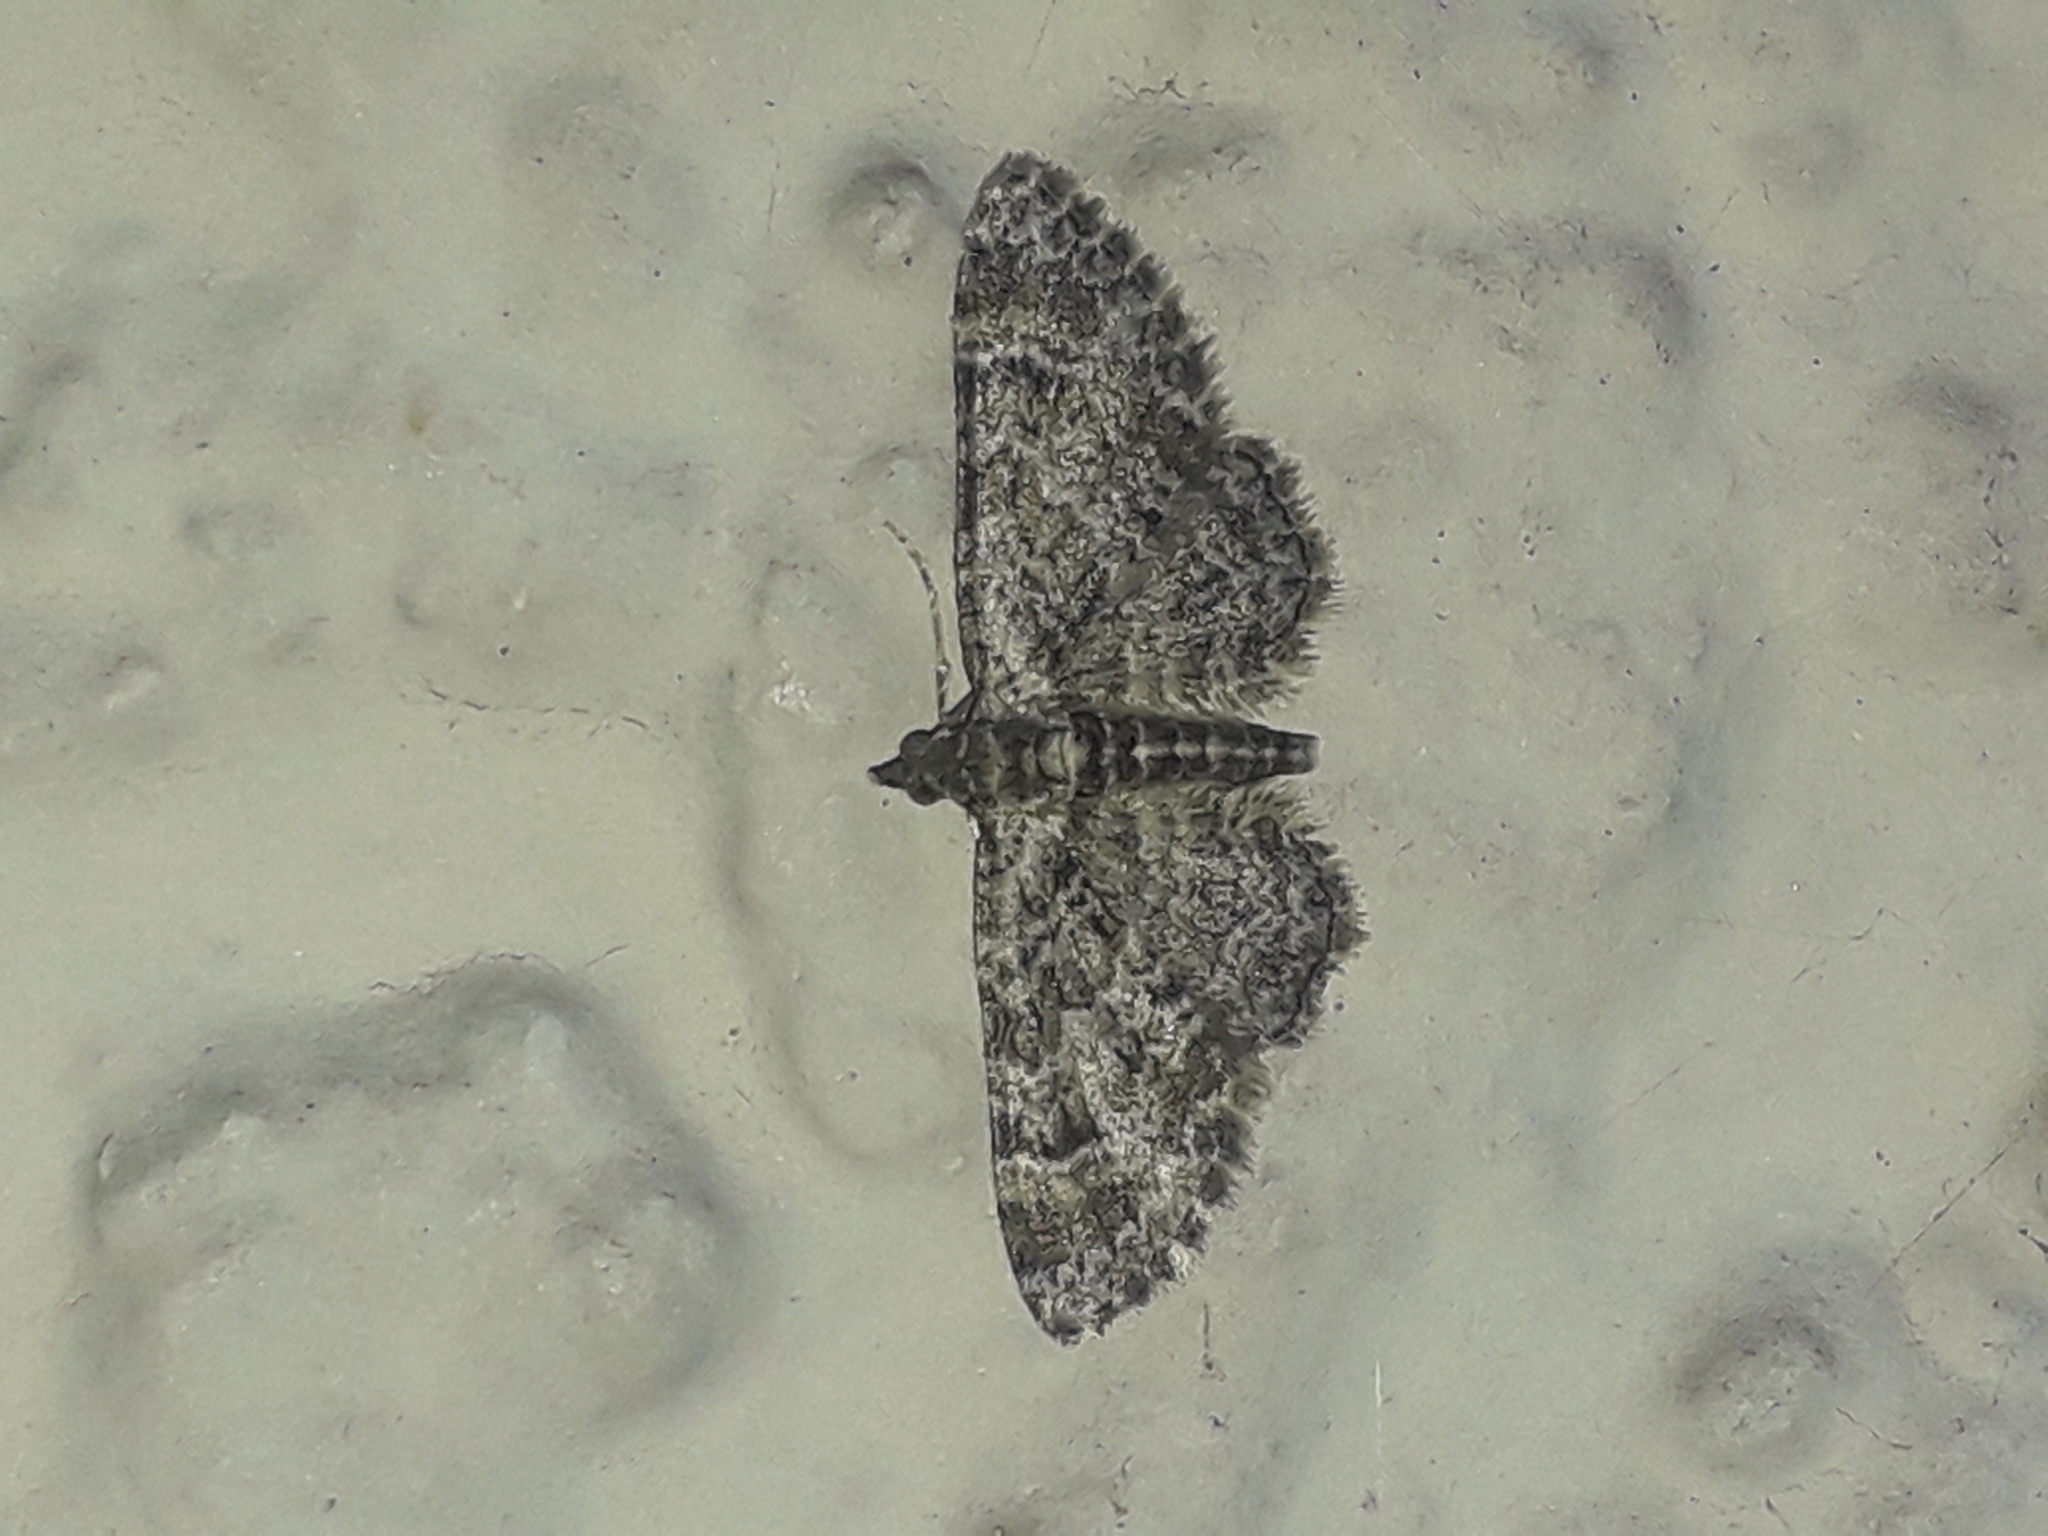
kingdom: Animalia
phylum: Arthropoda
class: Insecta
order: Lepidoptera
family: Geometridae
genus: Gymnoscelis
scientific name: Gymnoscelis rufifasciata
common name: Double-striped pug
